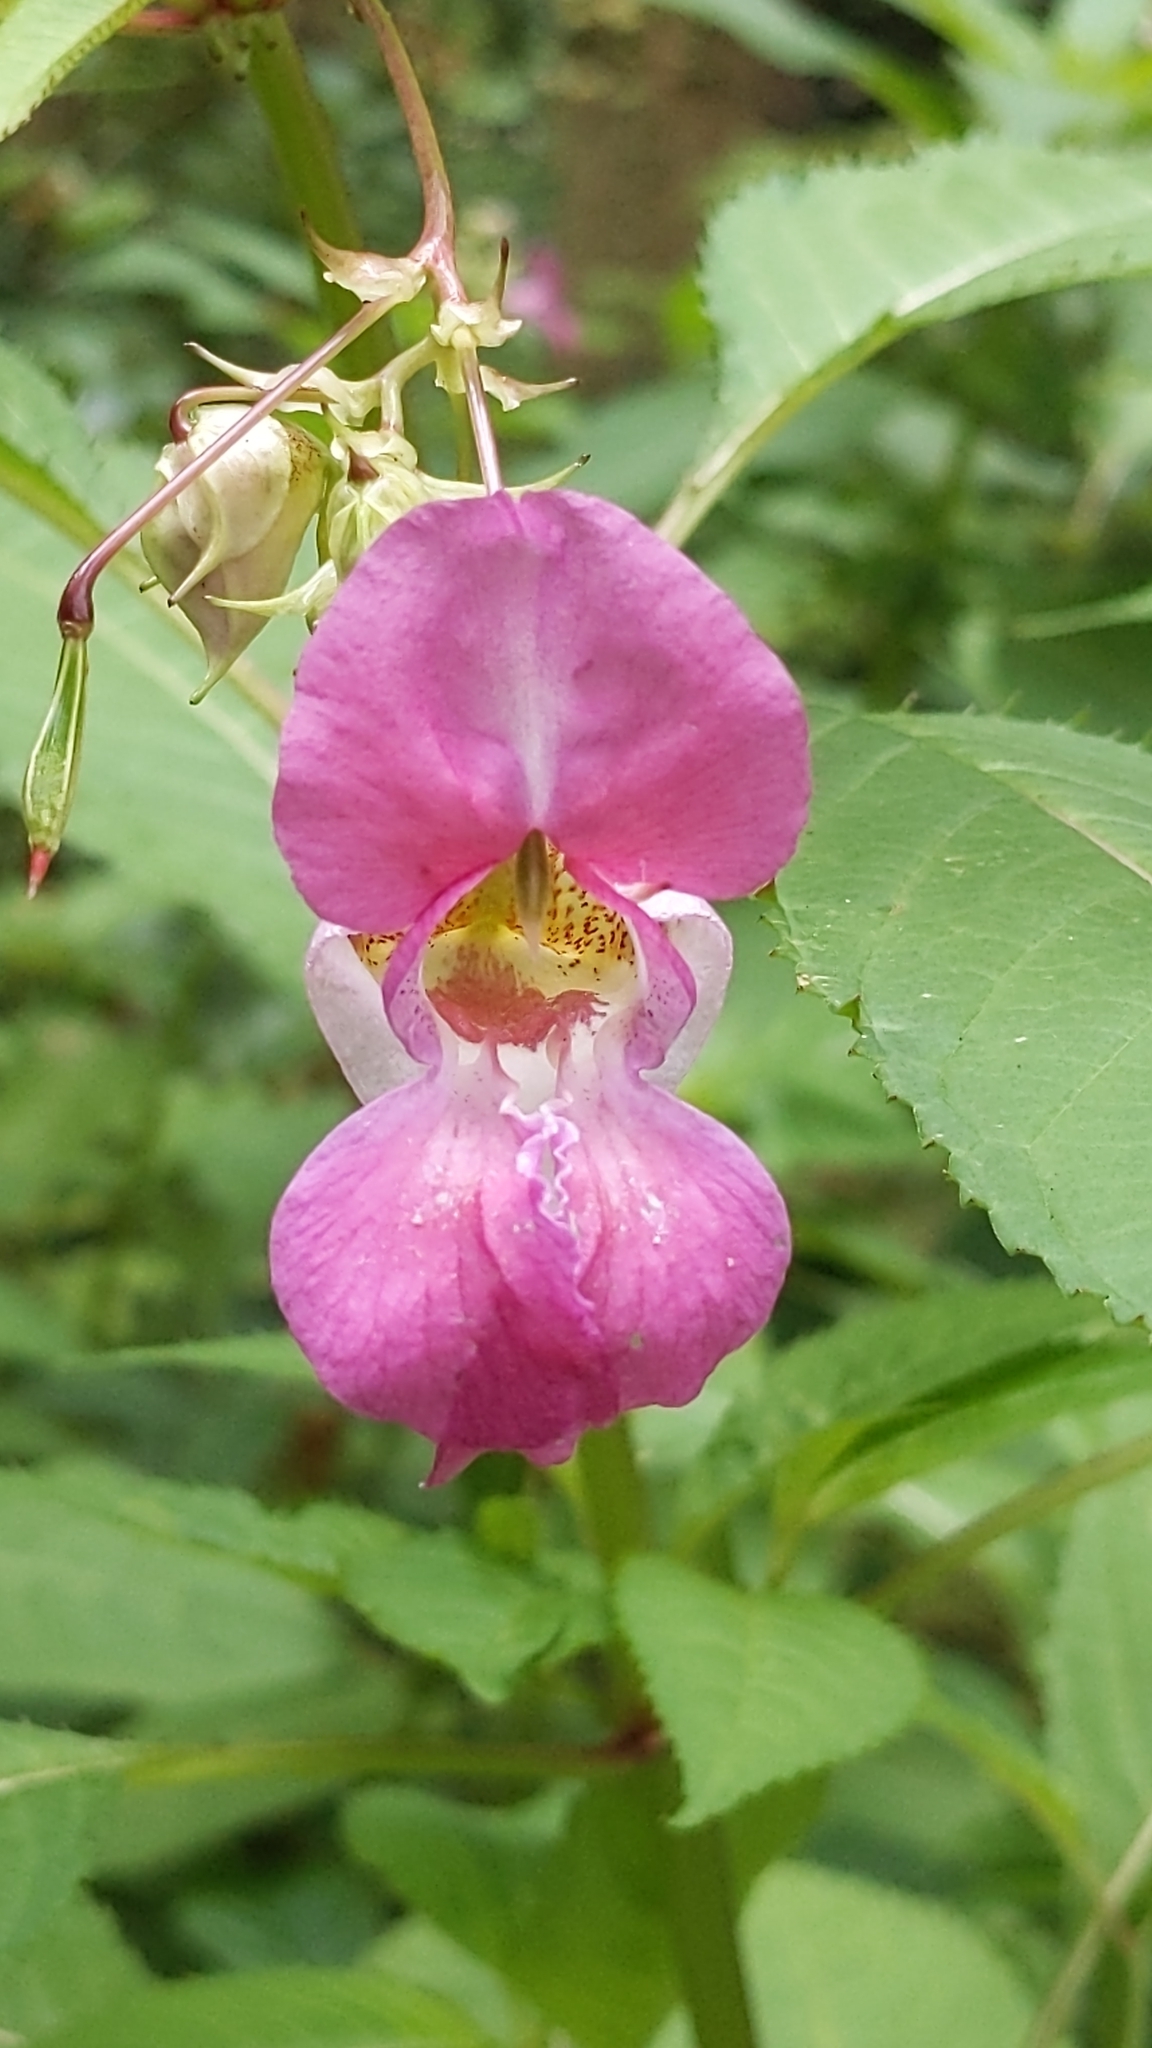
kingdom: Plantae
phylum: Tracheophyta
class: Magnoliopsida
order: Ericales
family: Balsaminaceae
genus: Impatiens
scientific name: Impatiens glandulifera
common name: Himalayan balsam
